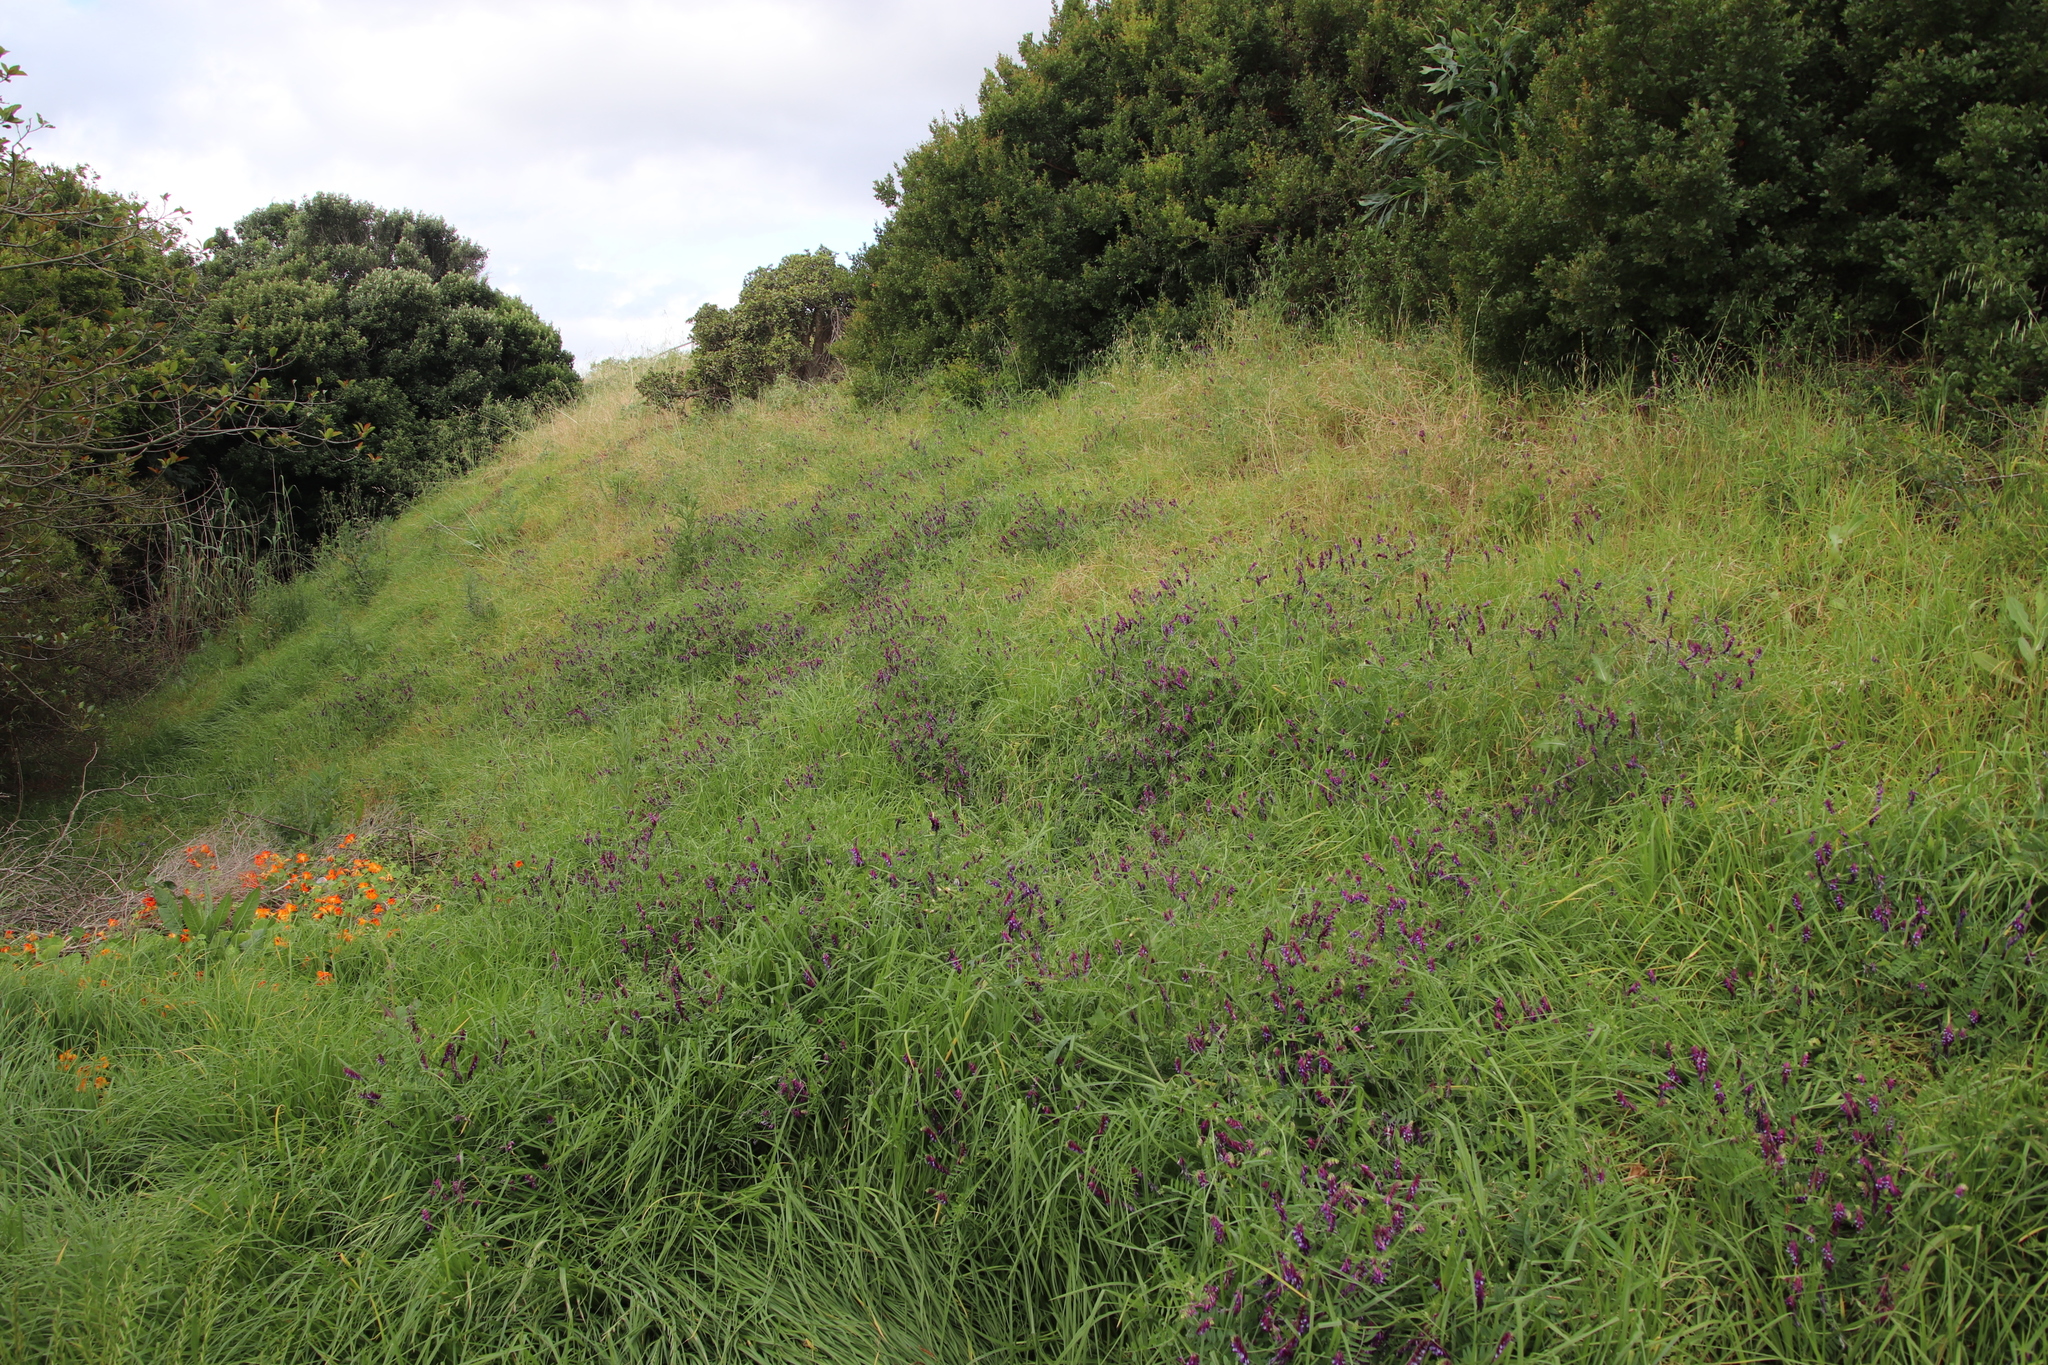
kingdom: Plantae
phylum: Tracheophyta
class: Magnoliopsida
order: Fabales
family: Fabaceae
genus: Vicia
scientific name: Vicia eriocarpa
